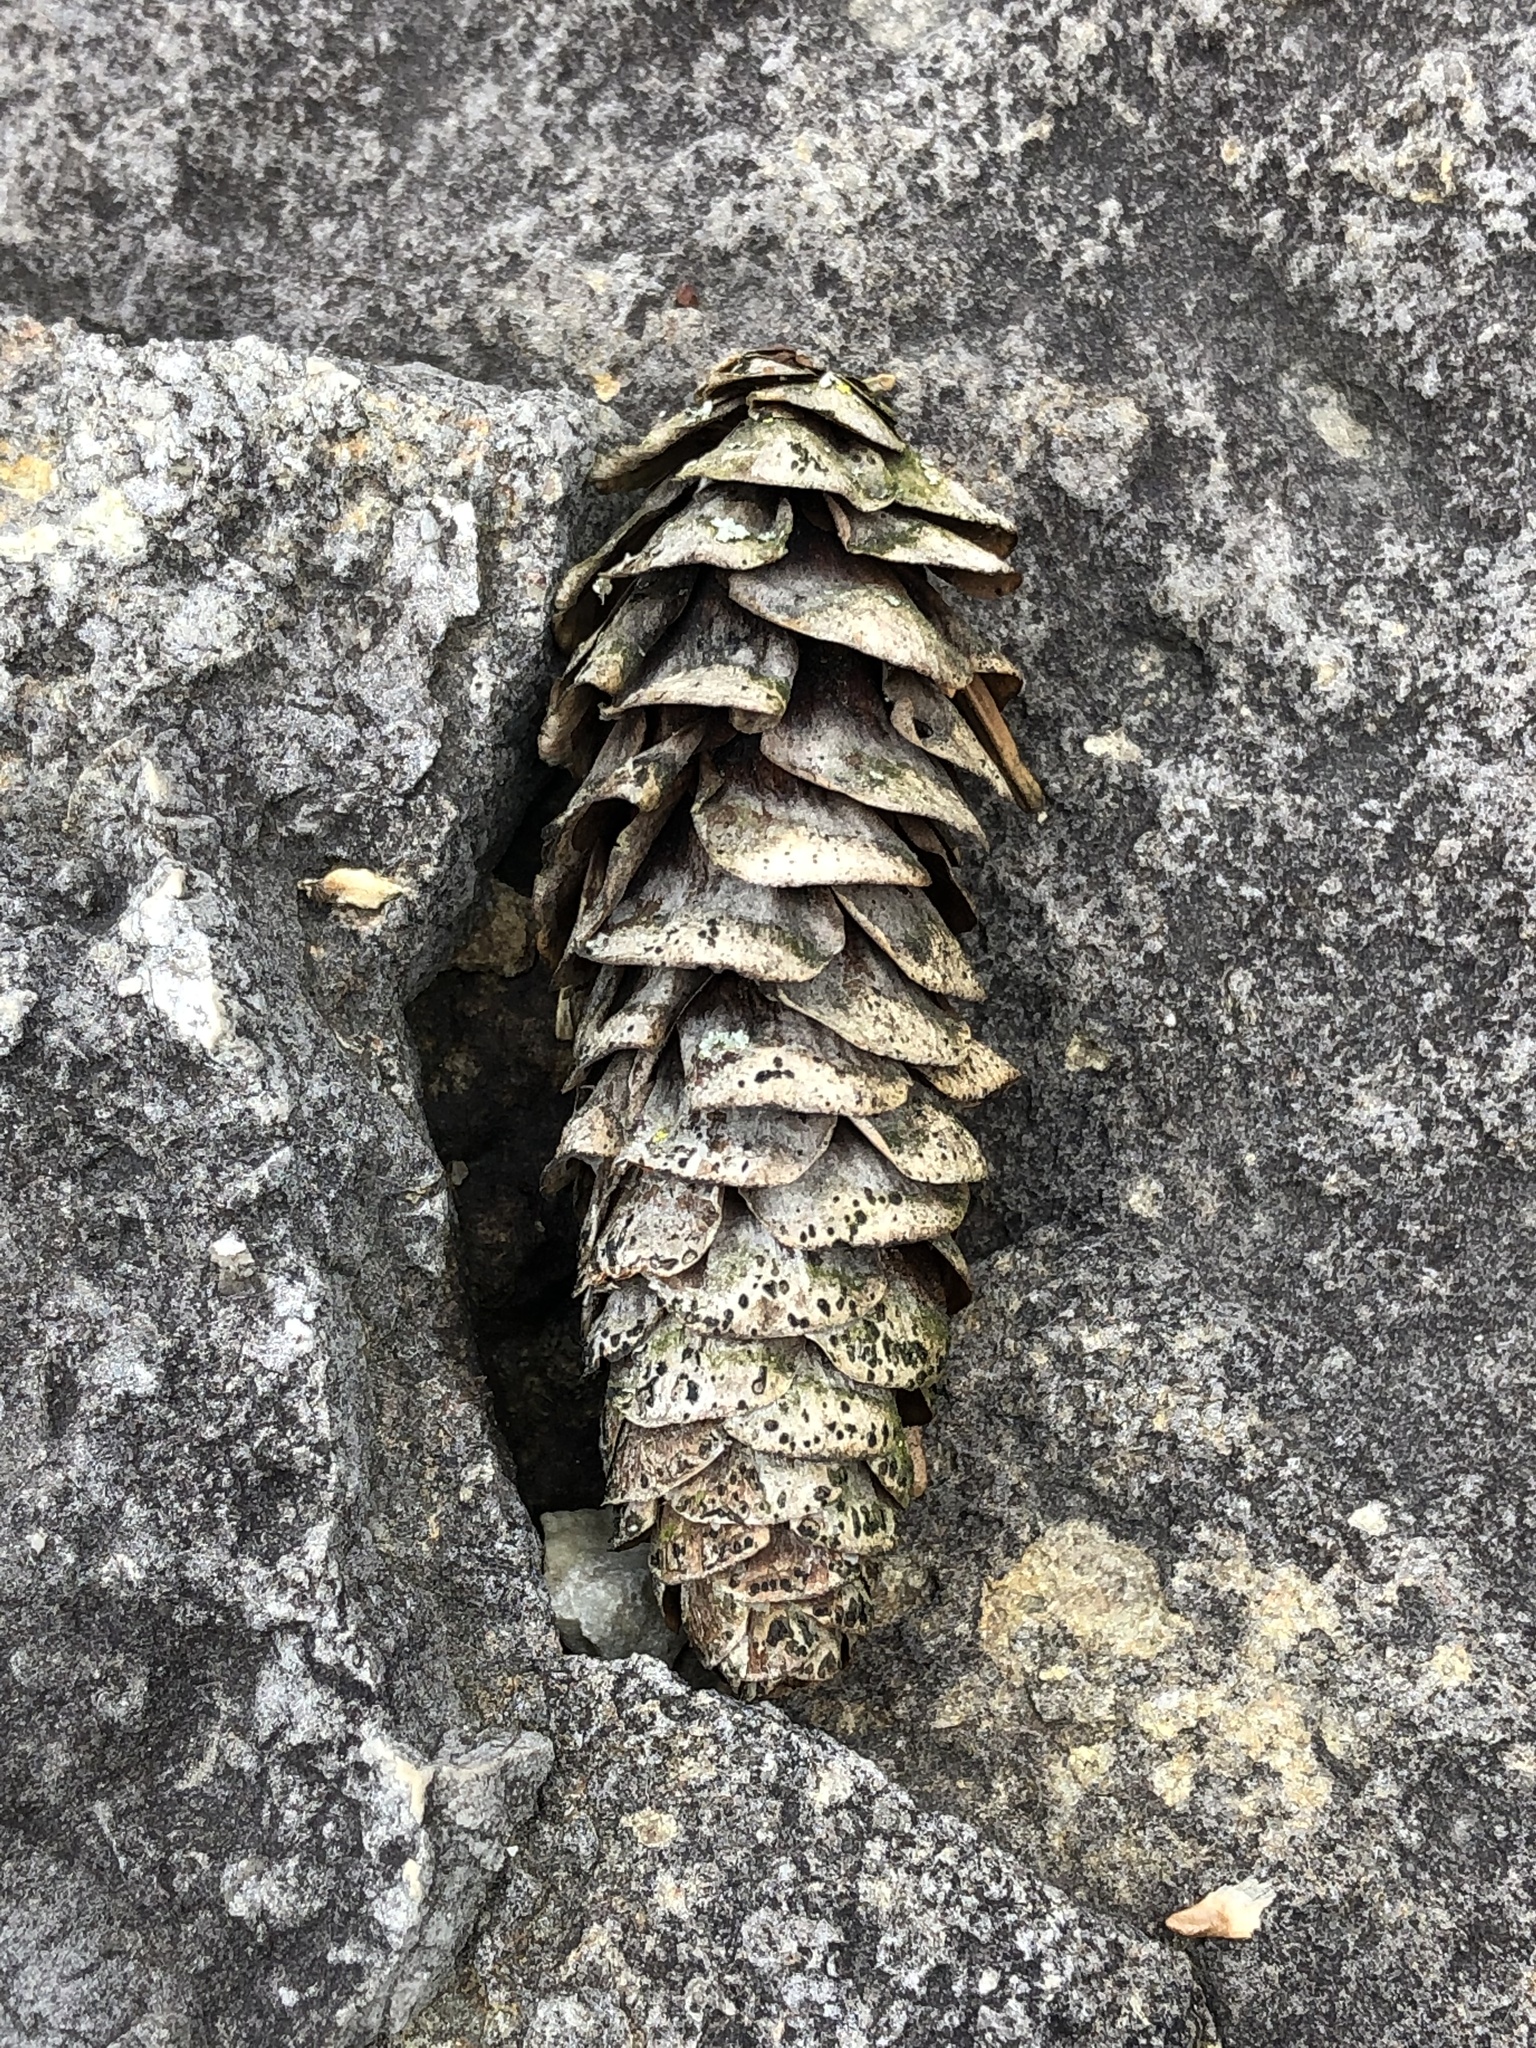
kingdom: Plantae
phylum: Tracheophyta
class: Pinopsida
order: Pinales
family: Pinaceae
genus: Picea
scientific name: Picea glauca
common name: White spruce
